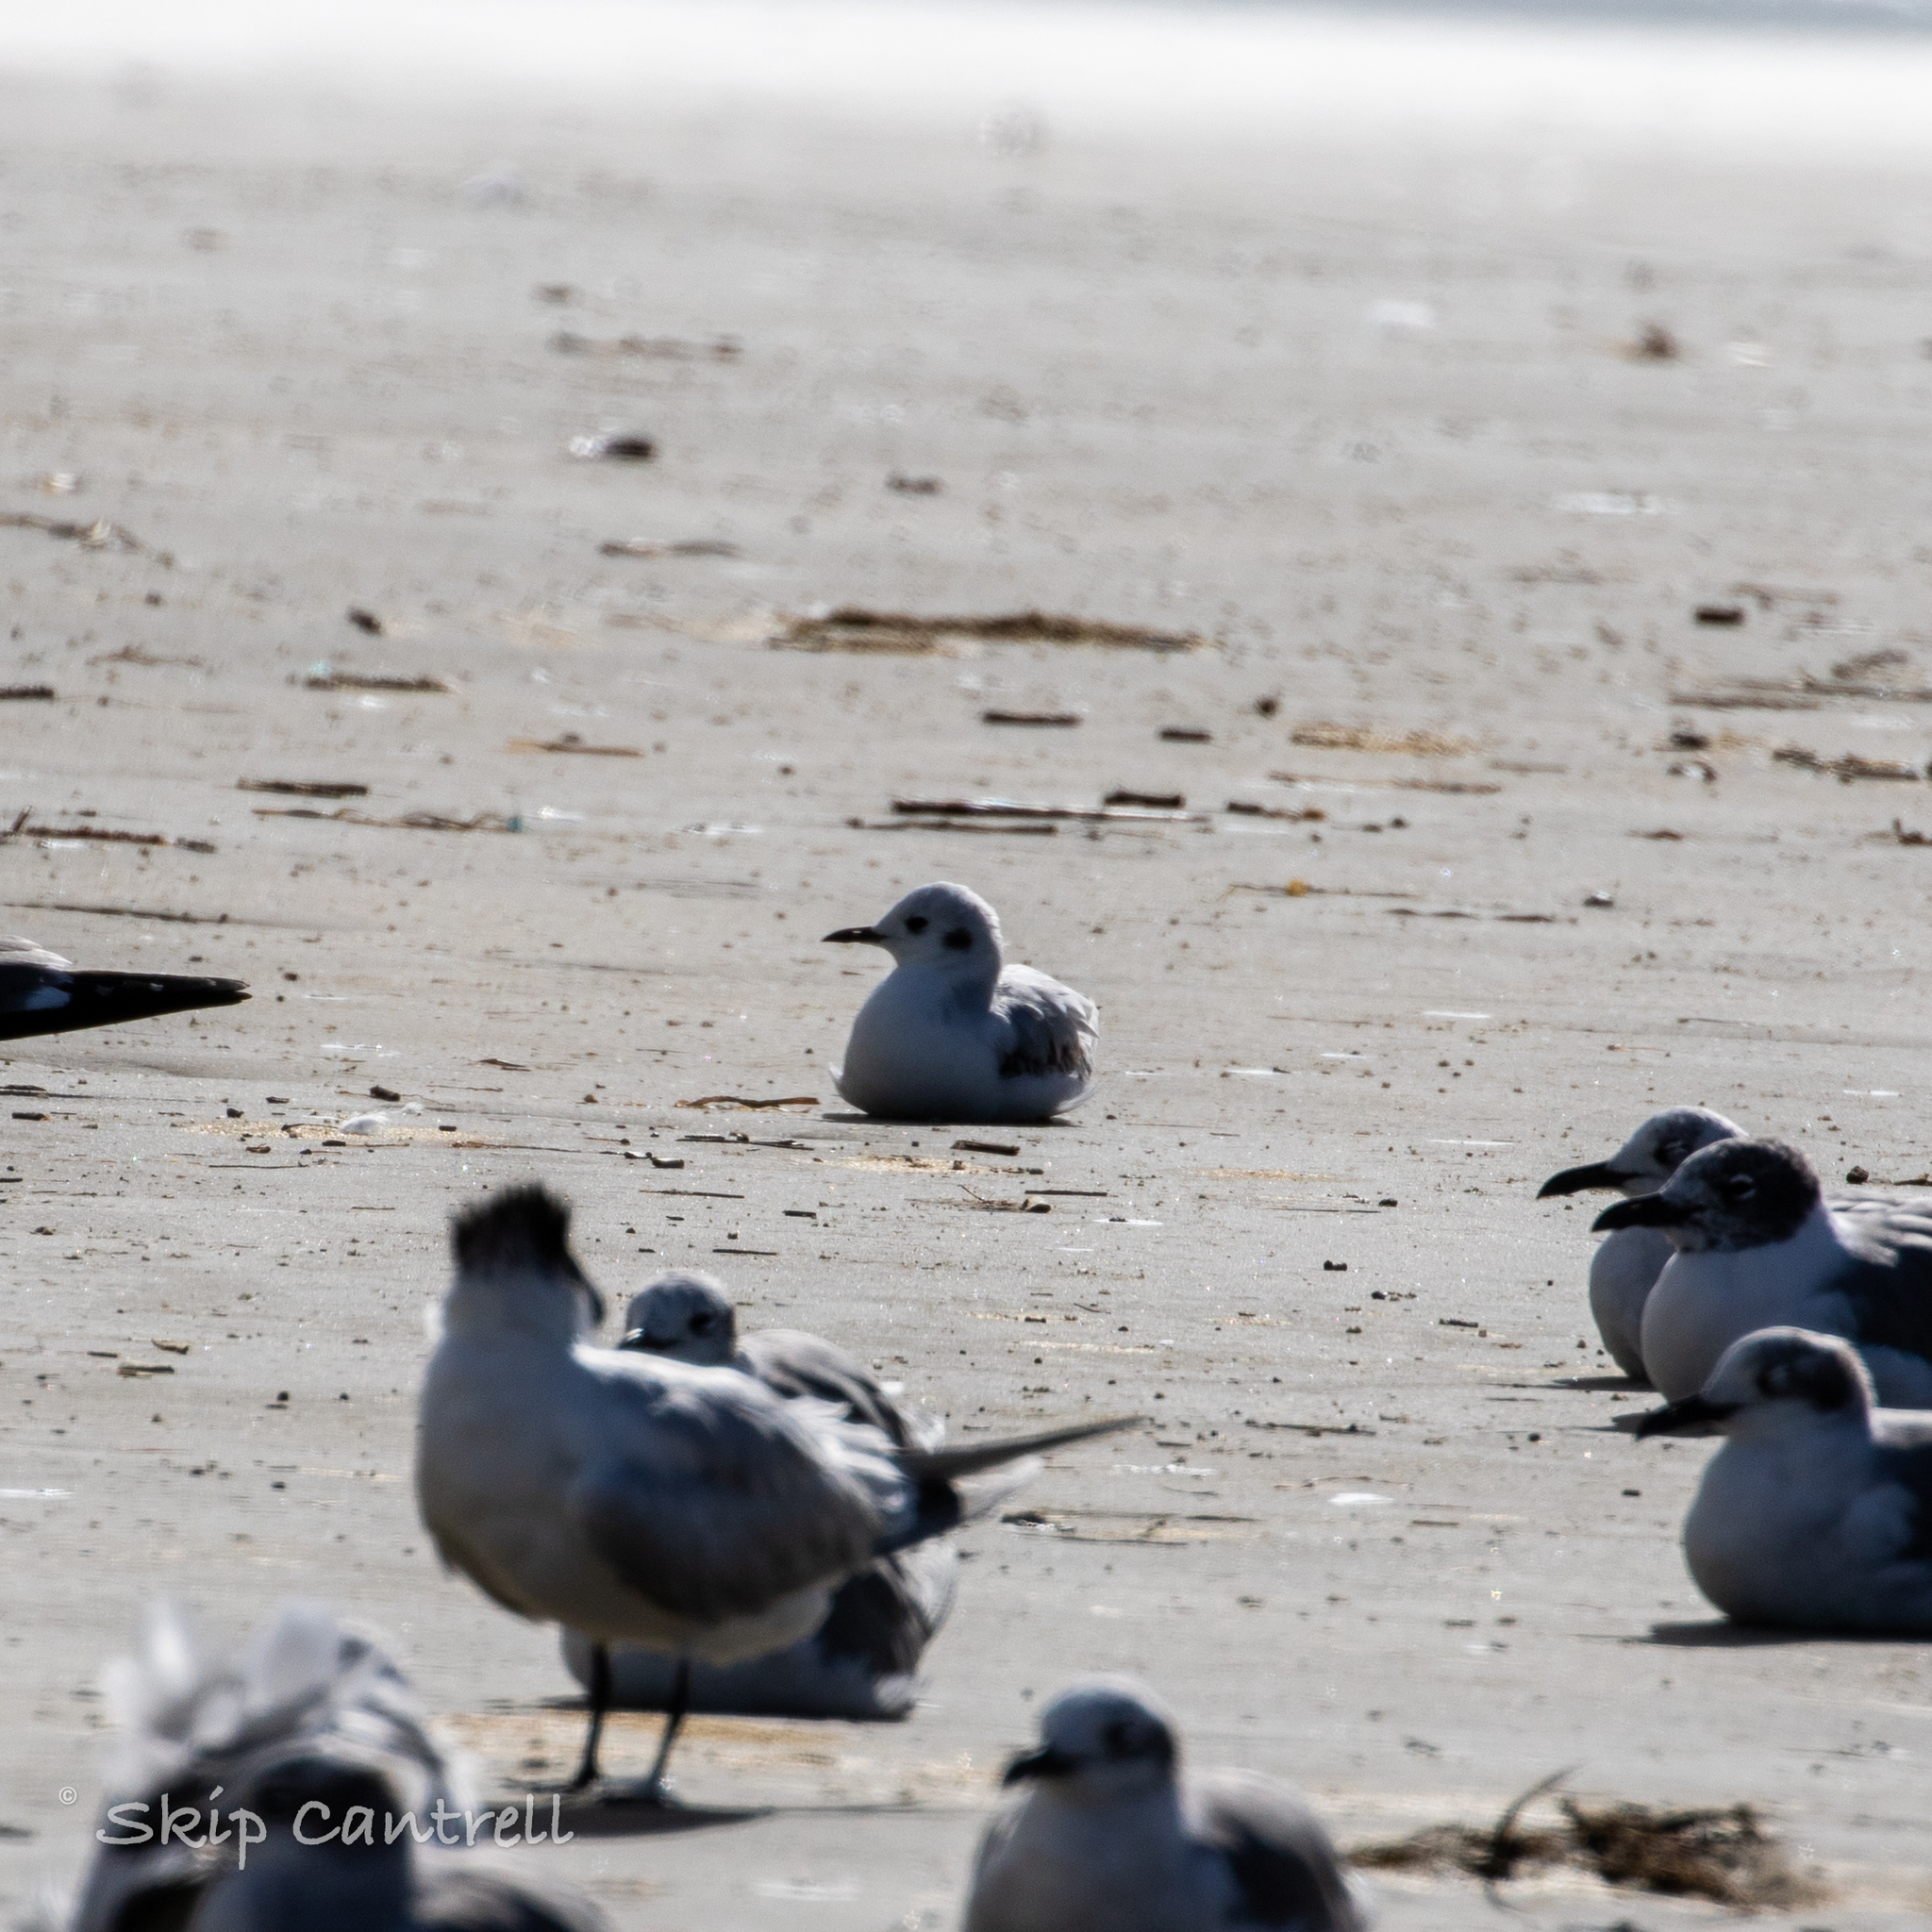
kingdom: Animalia
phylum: Chordata
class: Aves
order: Charadriiformes
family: Laridae
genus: Chroicocephalus
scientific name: Chroicocephalus philadelphia
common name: Bonaparte's gull
